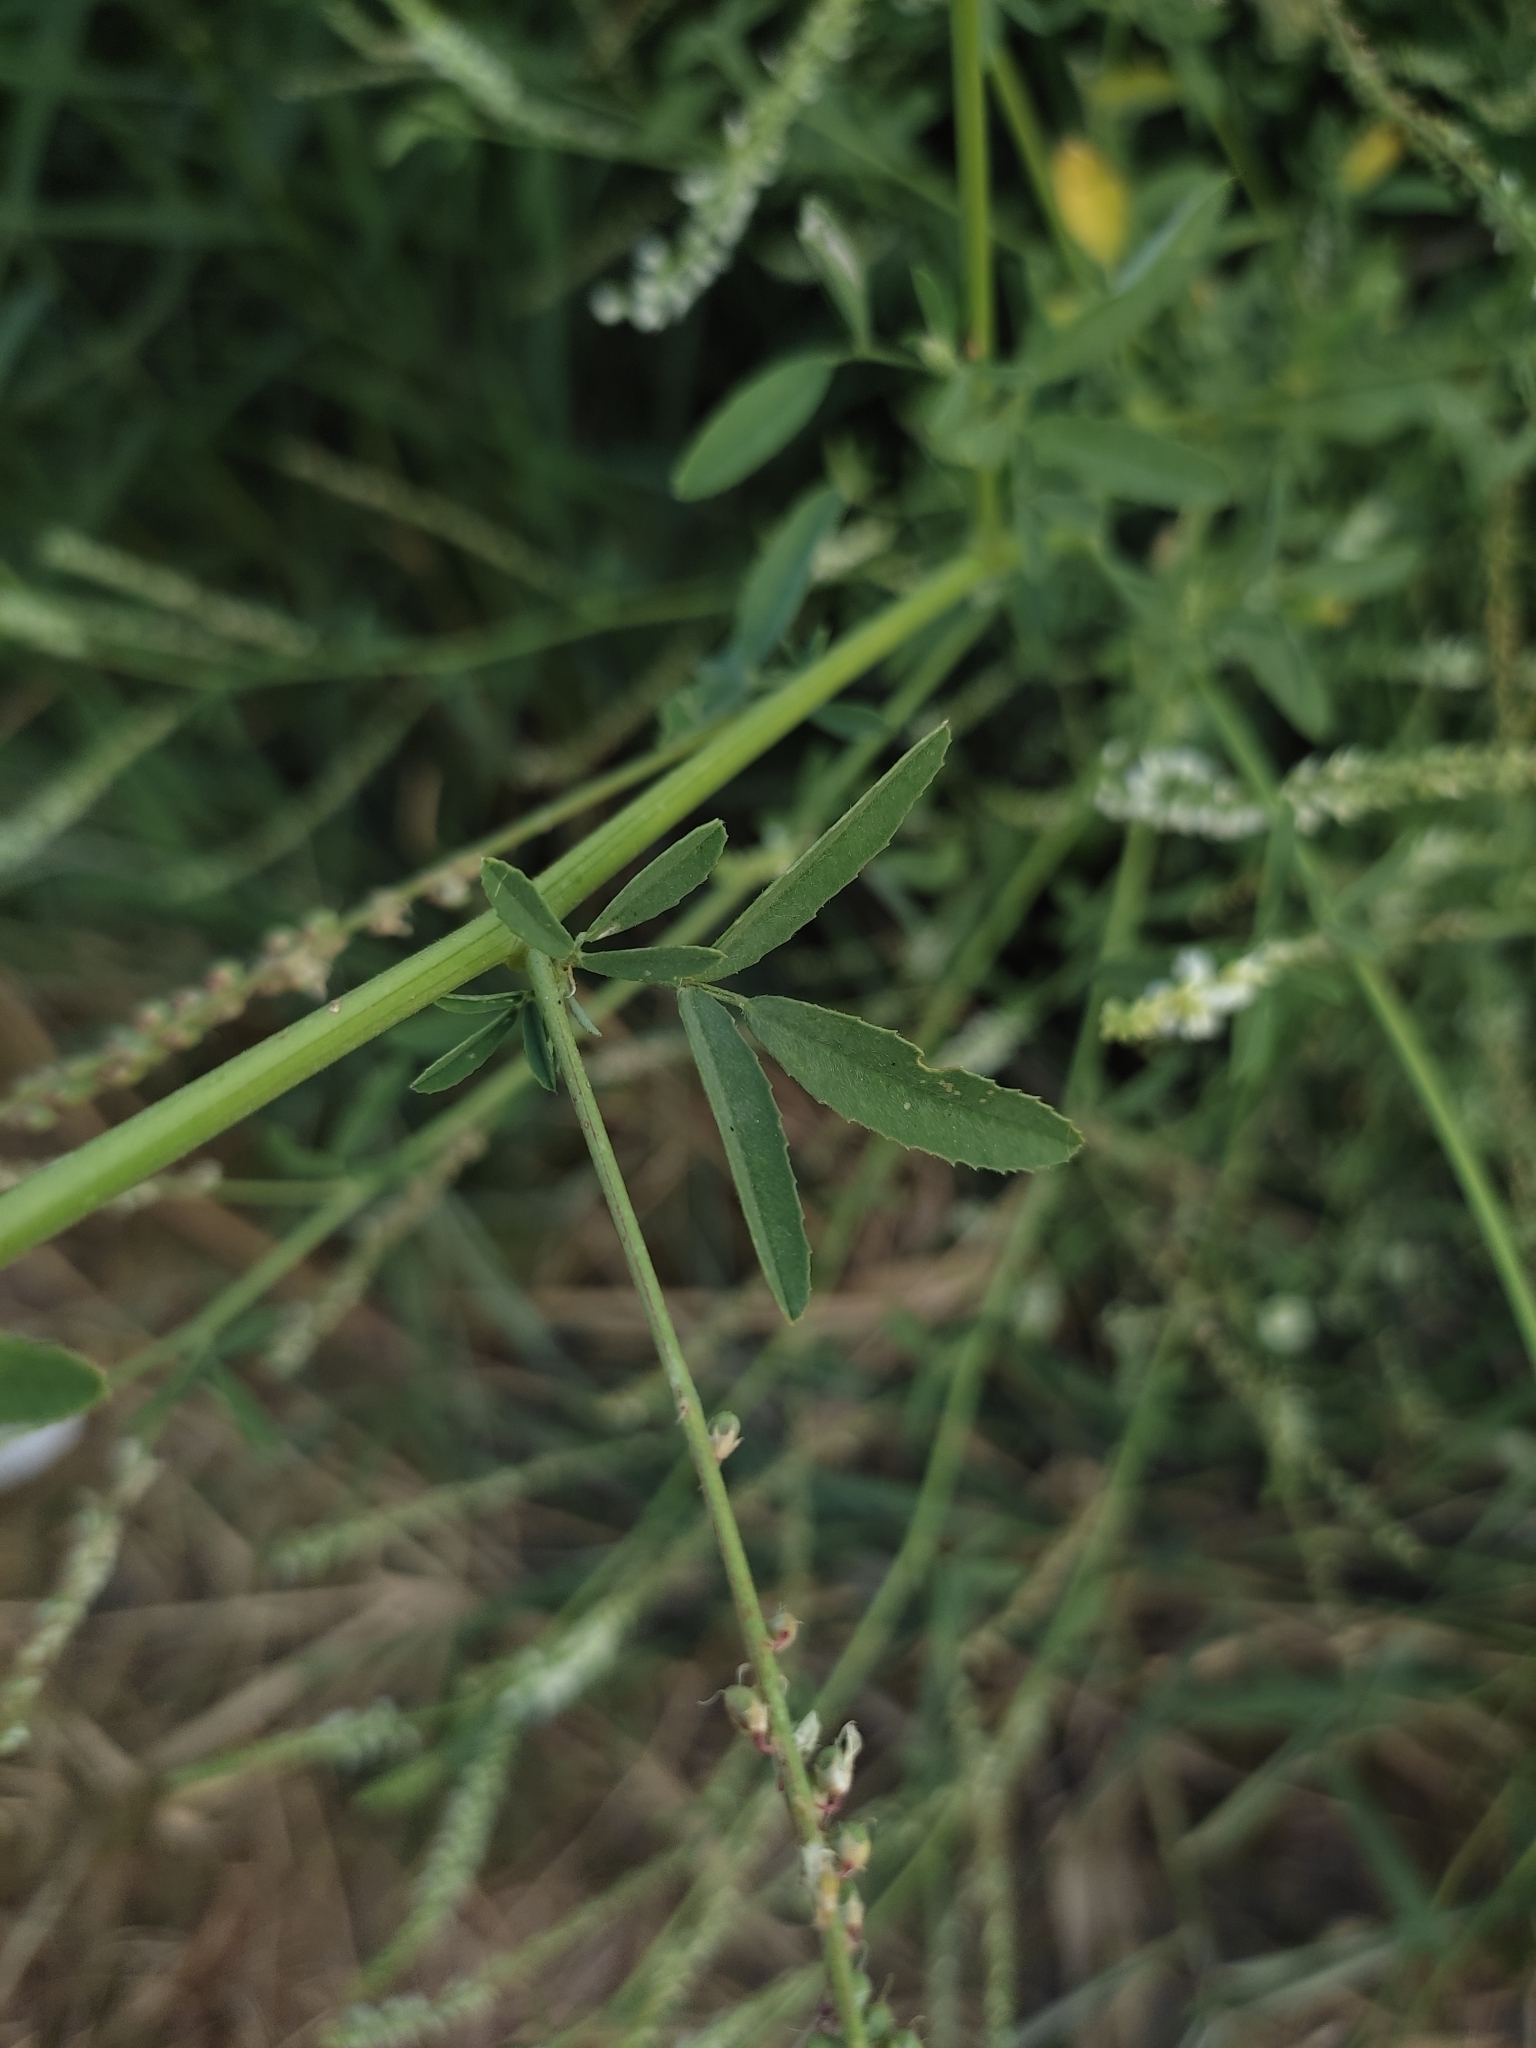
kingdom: Plantae
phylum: Tracheophyta
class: Magnoliopsida
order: Fabales
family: Fabaceae
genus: Melilotus
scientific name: Melilotus albus
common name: White melilot
